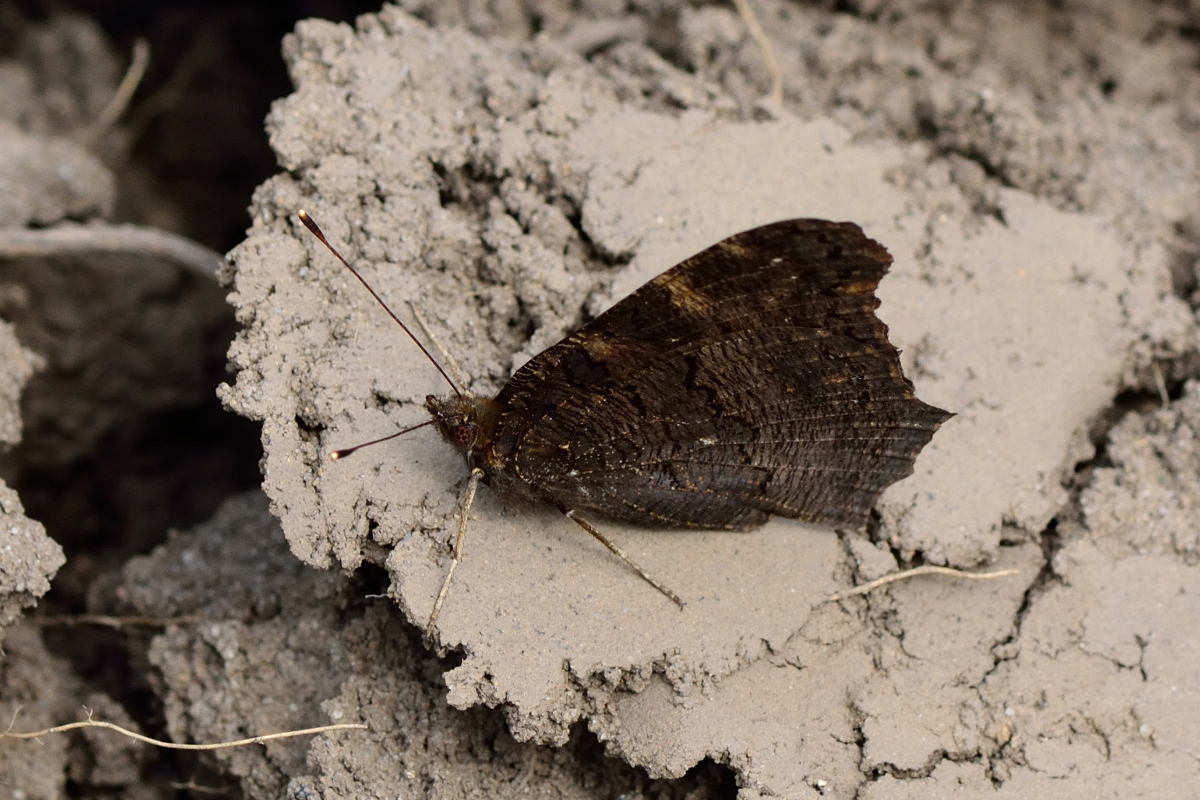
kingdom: Animalia
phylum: Arthropoda
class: Insecta
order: Lepidoptera
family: Nymphalidae
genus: Aglais
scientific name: Aglais io
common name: Peacock
